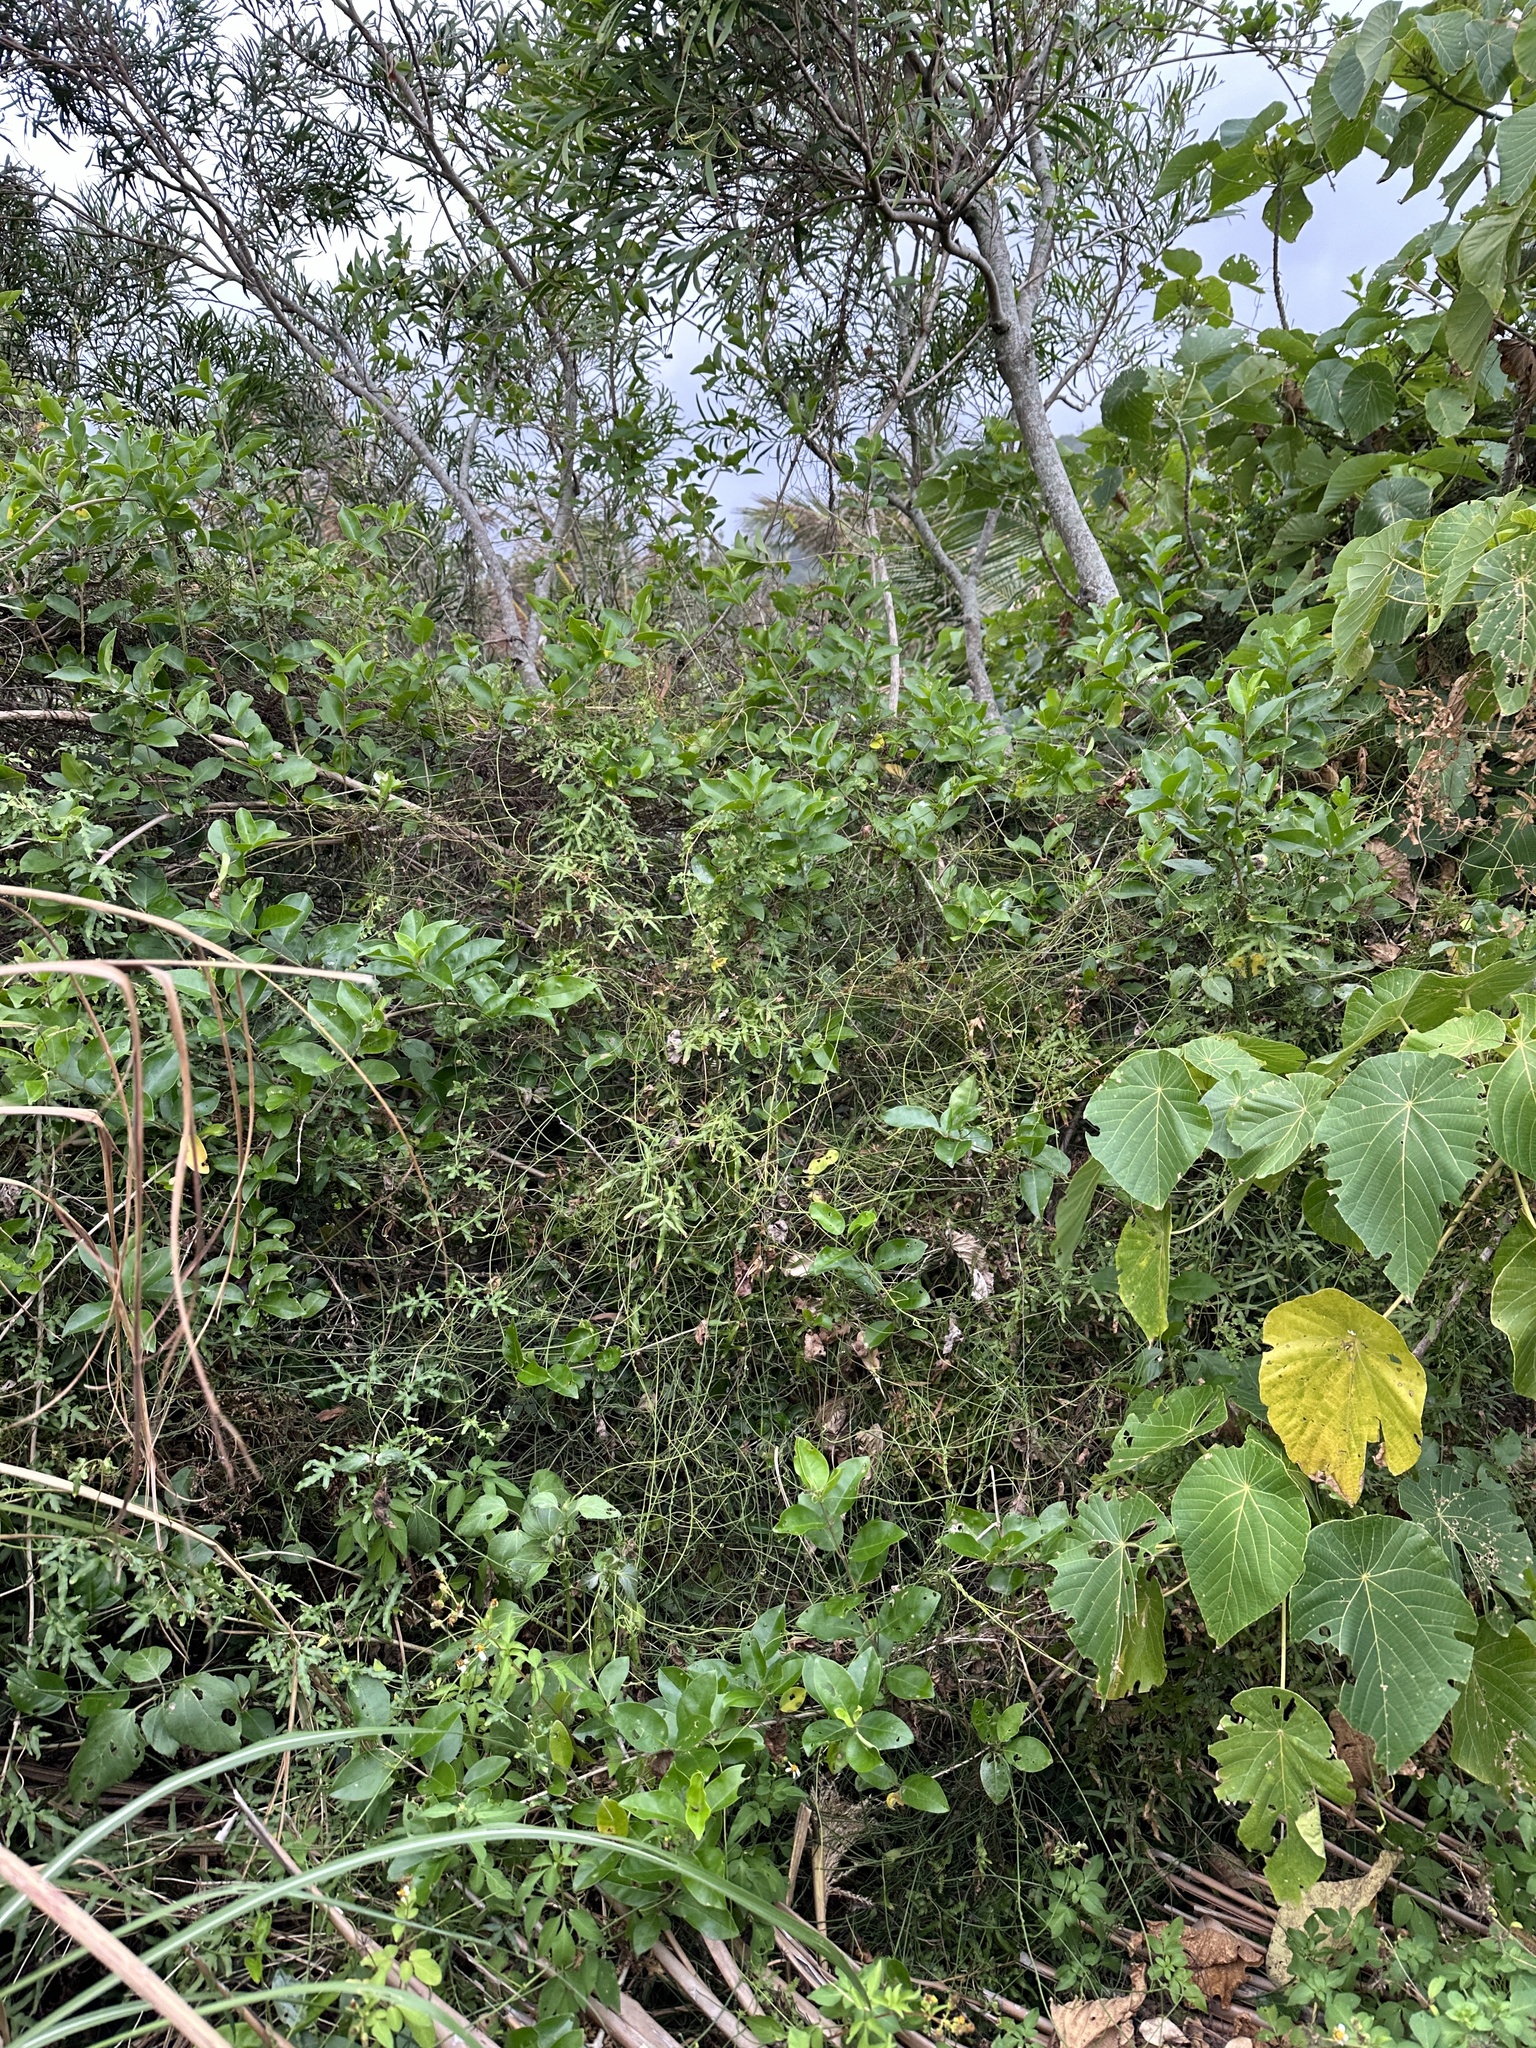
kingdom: Plantae
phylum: Tracheophyta
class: Polypodiopsida
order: Schizaeales
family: Lygodiaceae
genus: Lygodium
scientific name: Lygodium japonicum
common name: Japanese climbing fern
